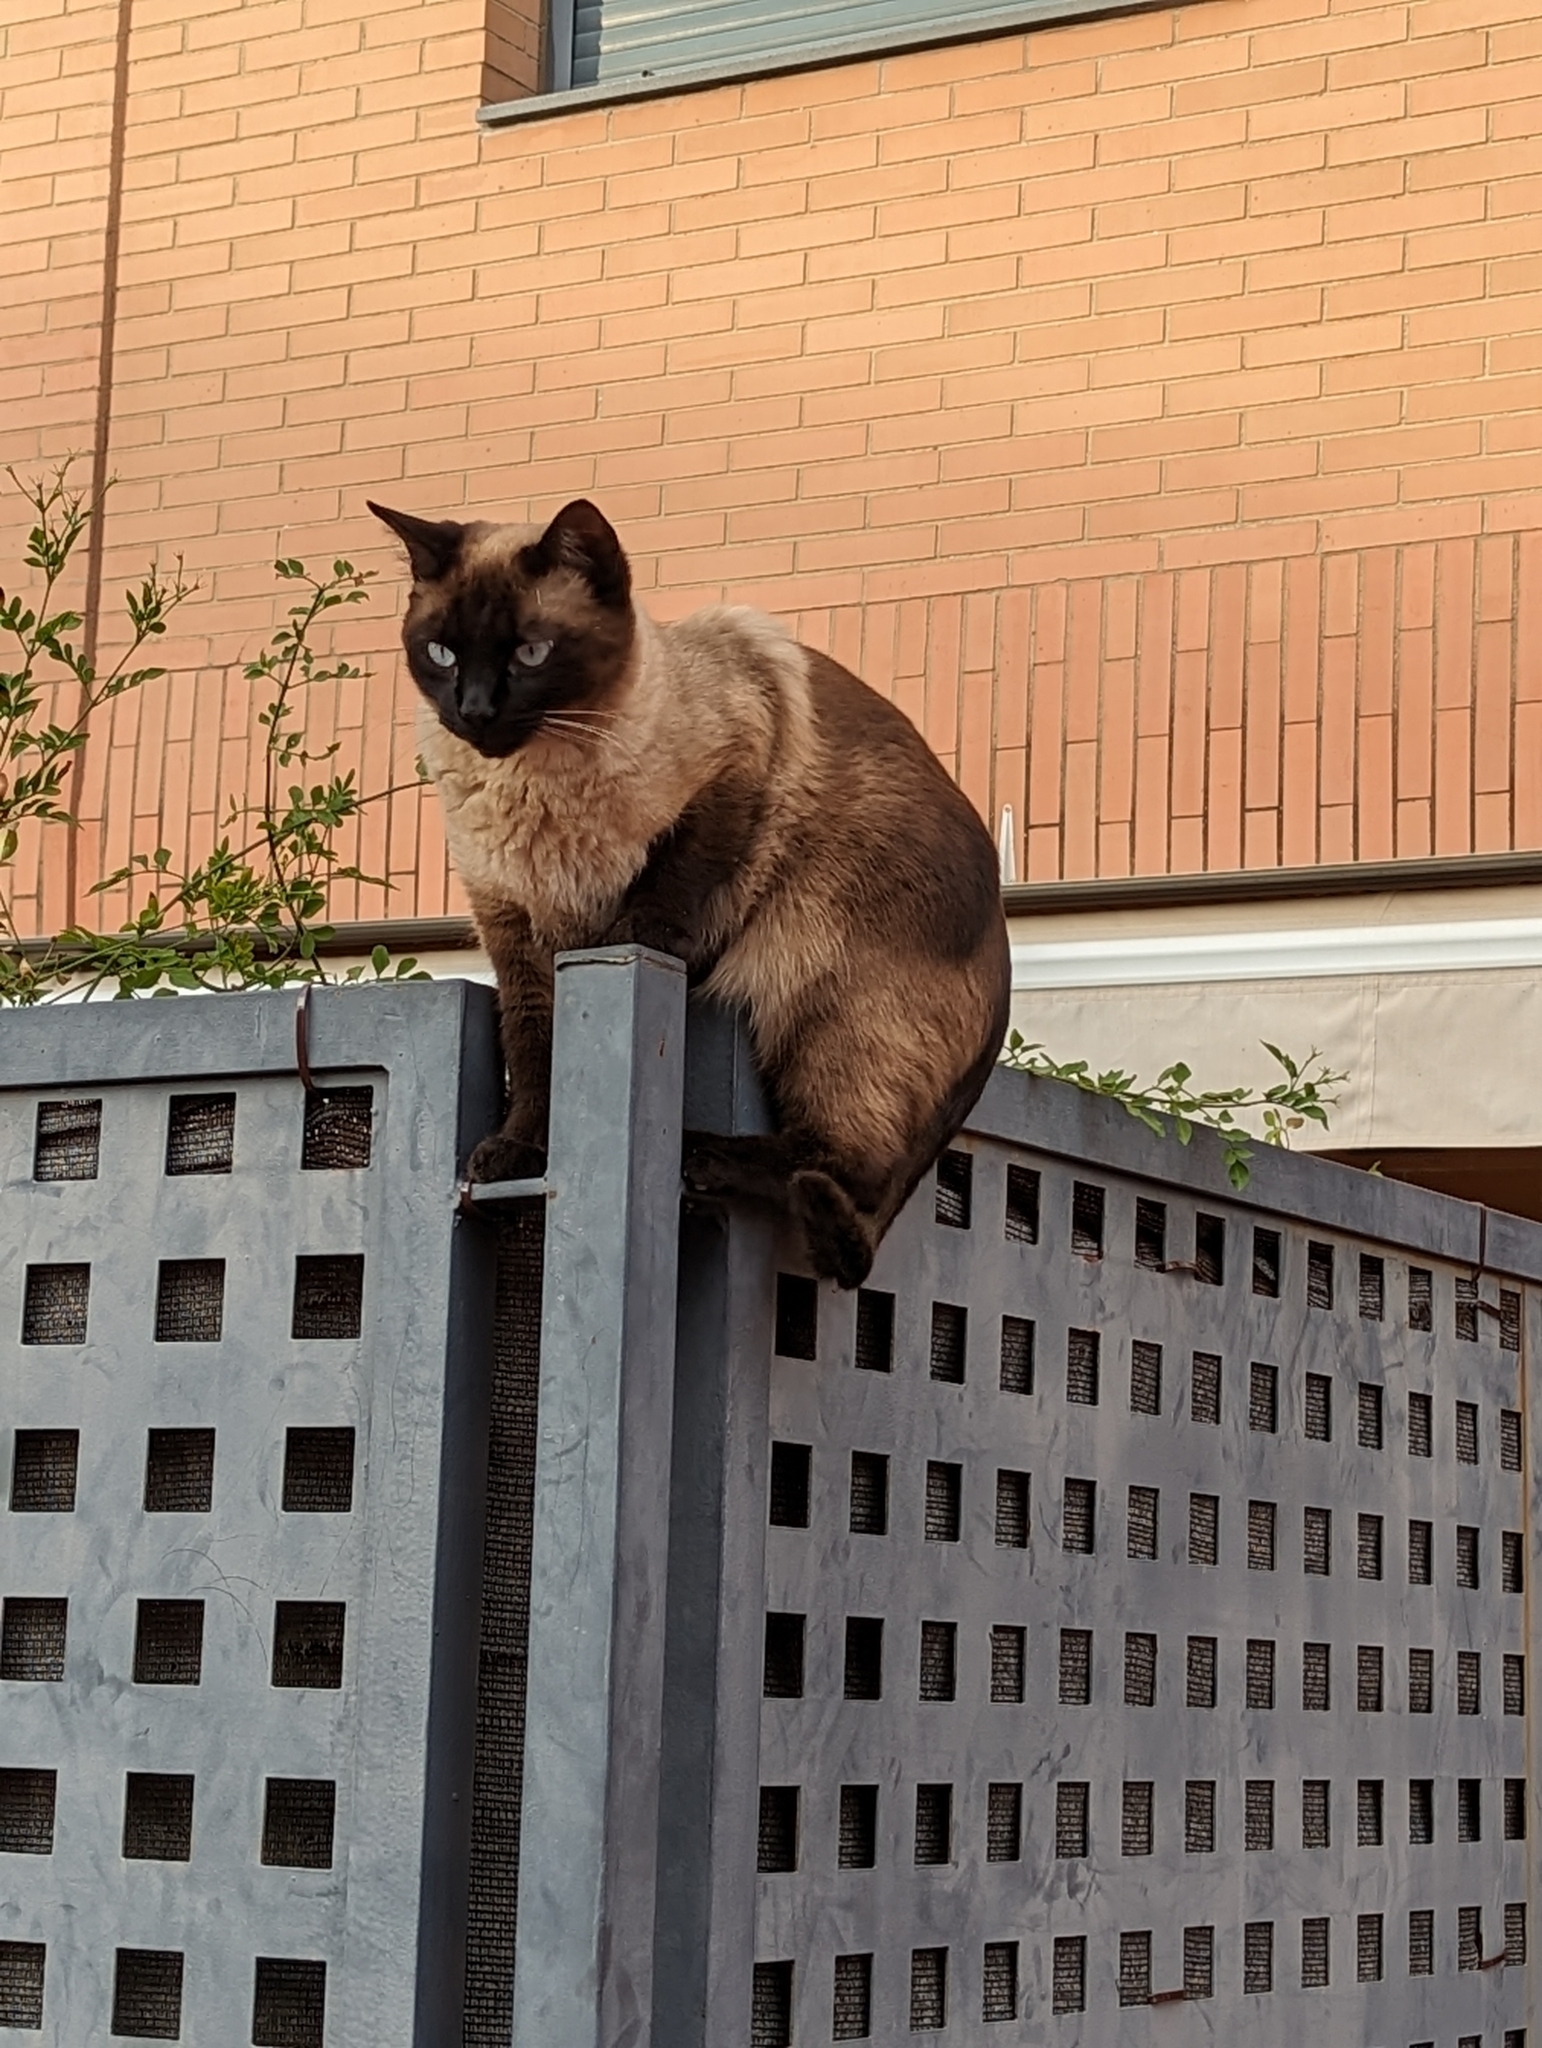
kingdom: Animalia
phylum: Chordata
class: Mammalia
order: Carnivora
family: Felidae
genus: Felis
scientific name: Felis catus
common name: Domestic cat
